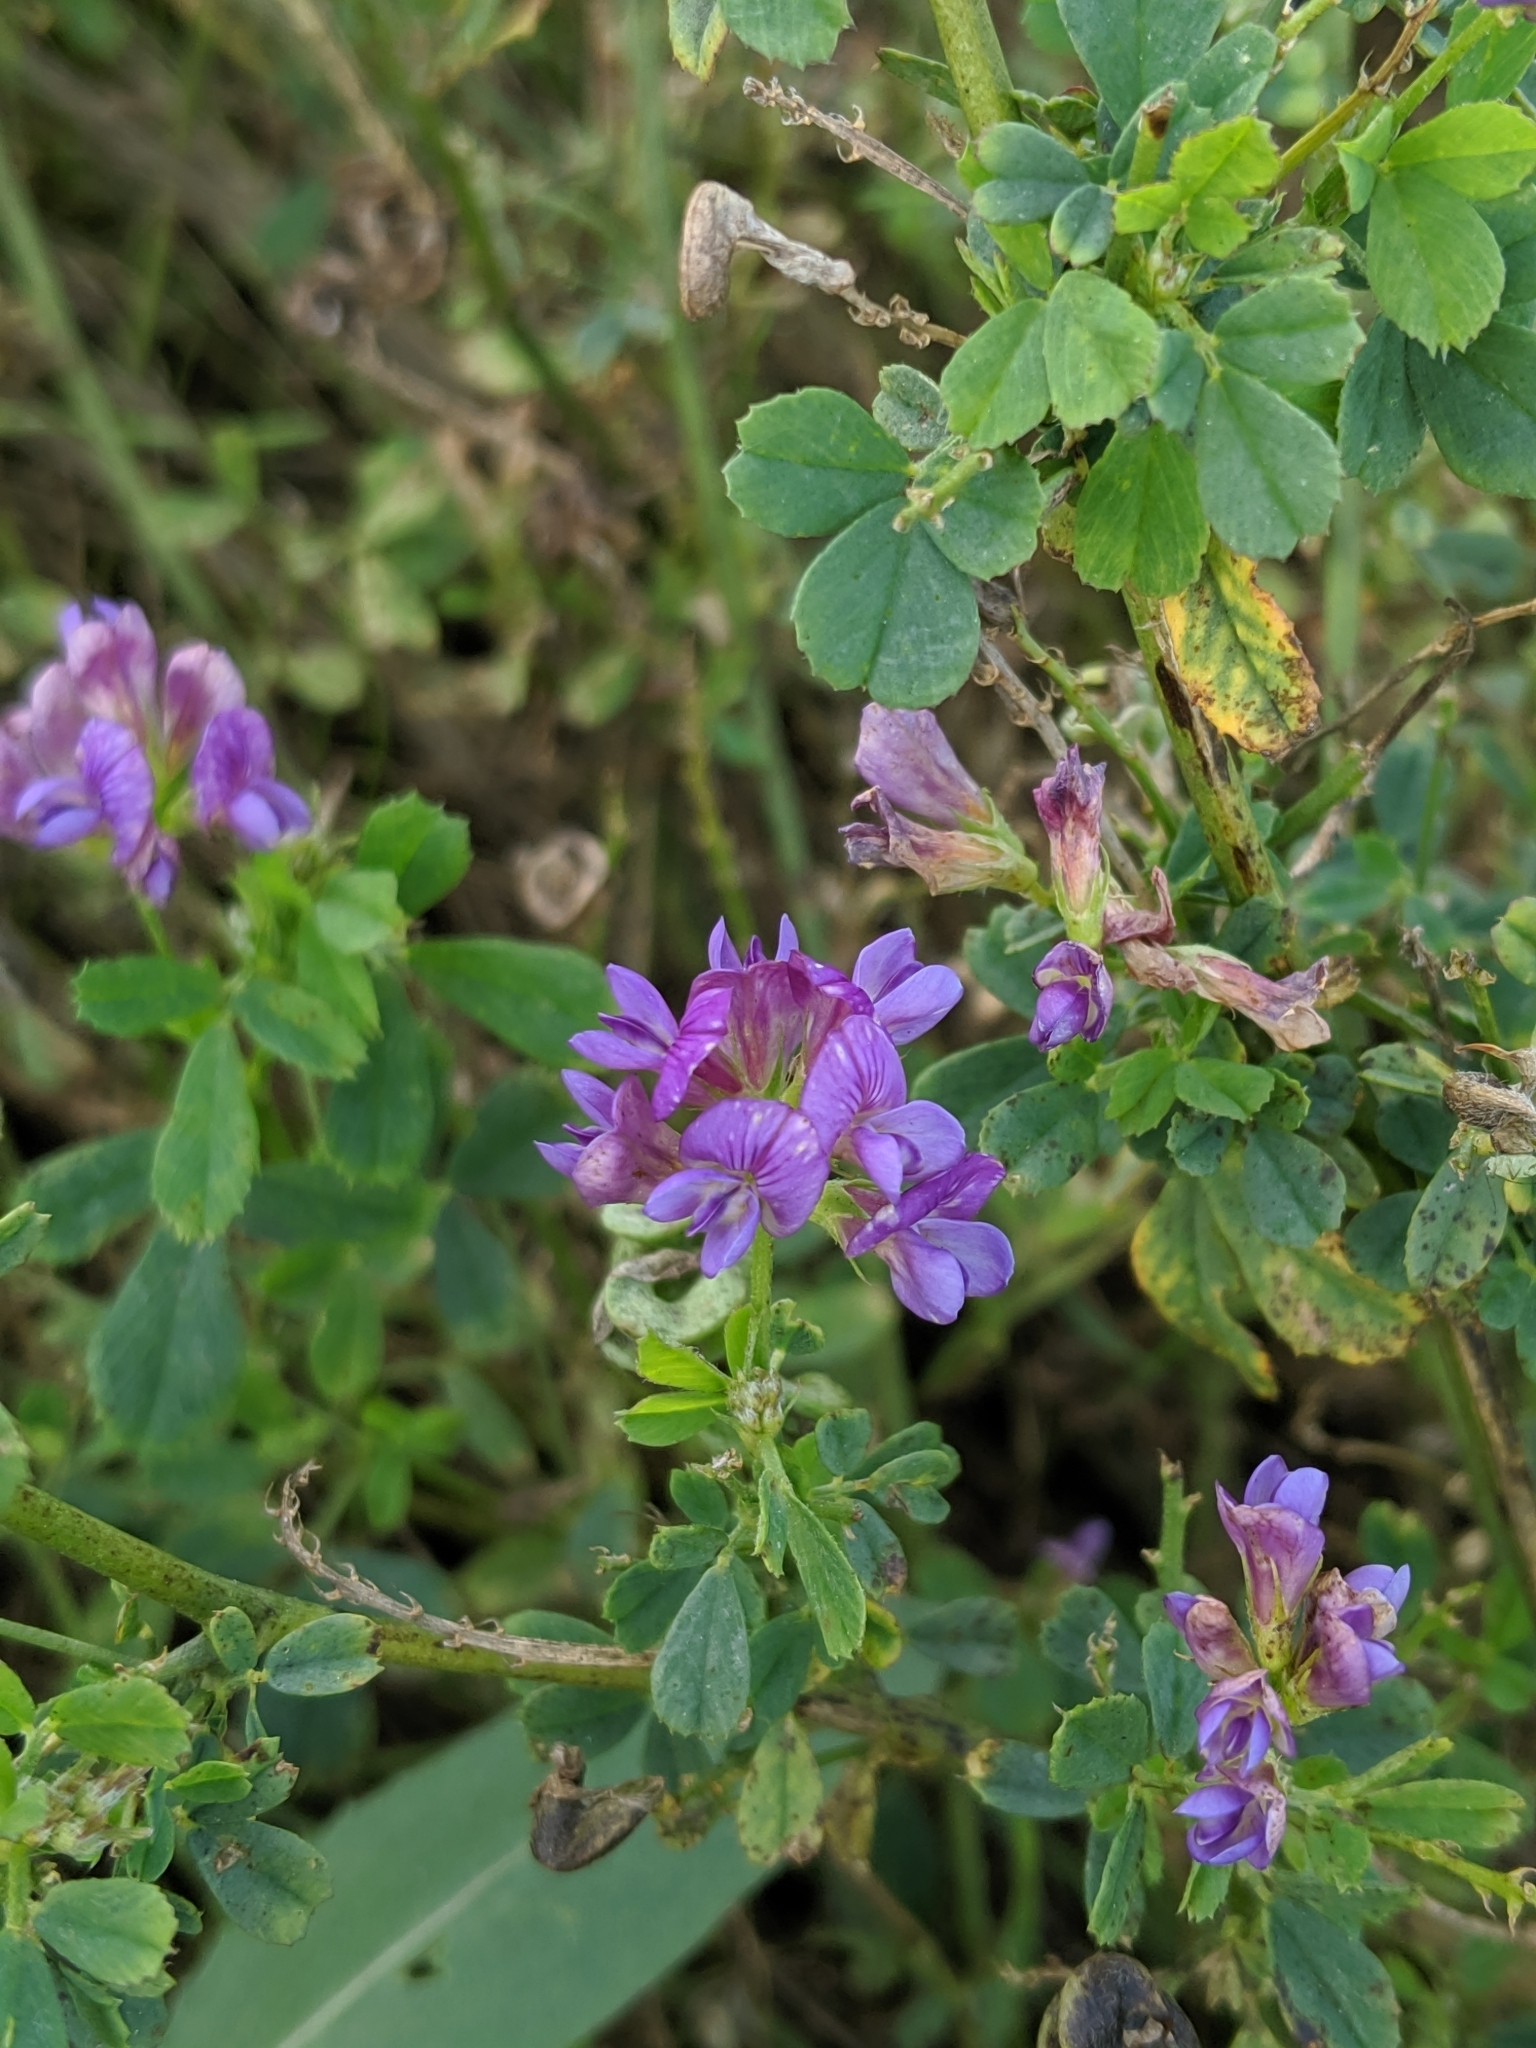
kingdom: Plantae
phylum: Tracheophyta
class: Magnoliopsida
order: Fabales
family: Fabaceae
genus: Medicago
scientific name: Medicago sativa
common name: Alfalfa
